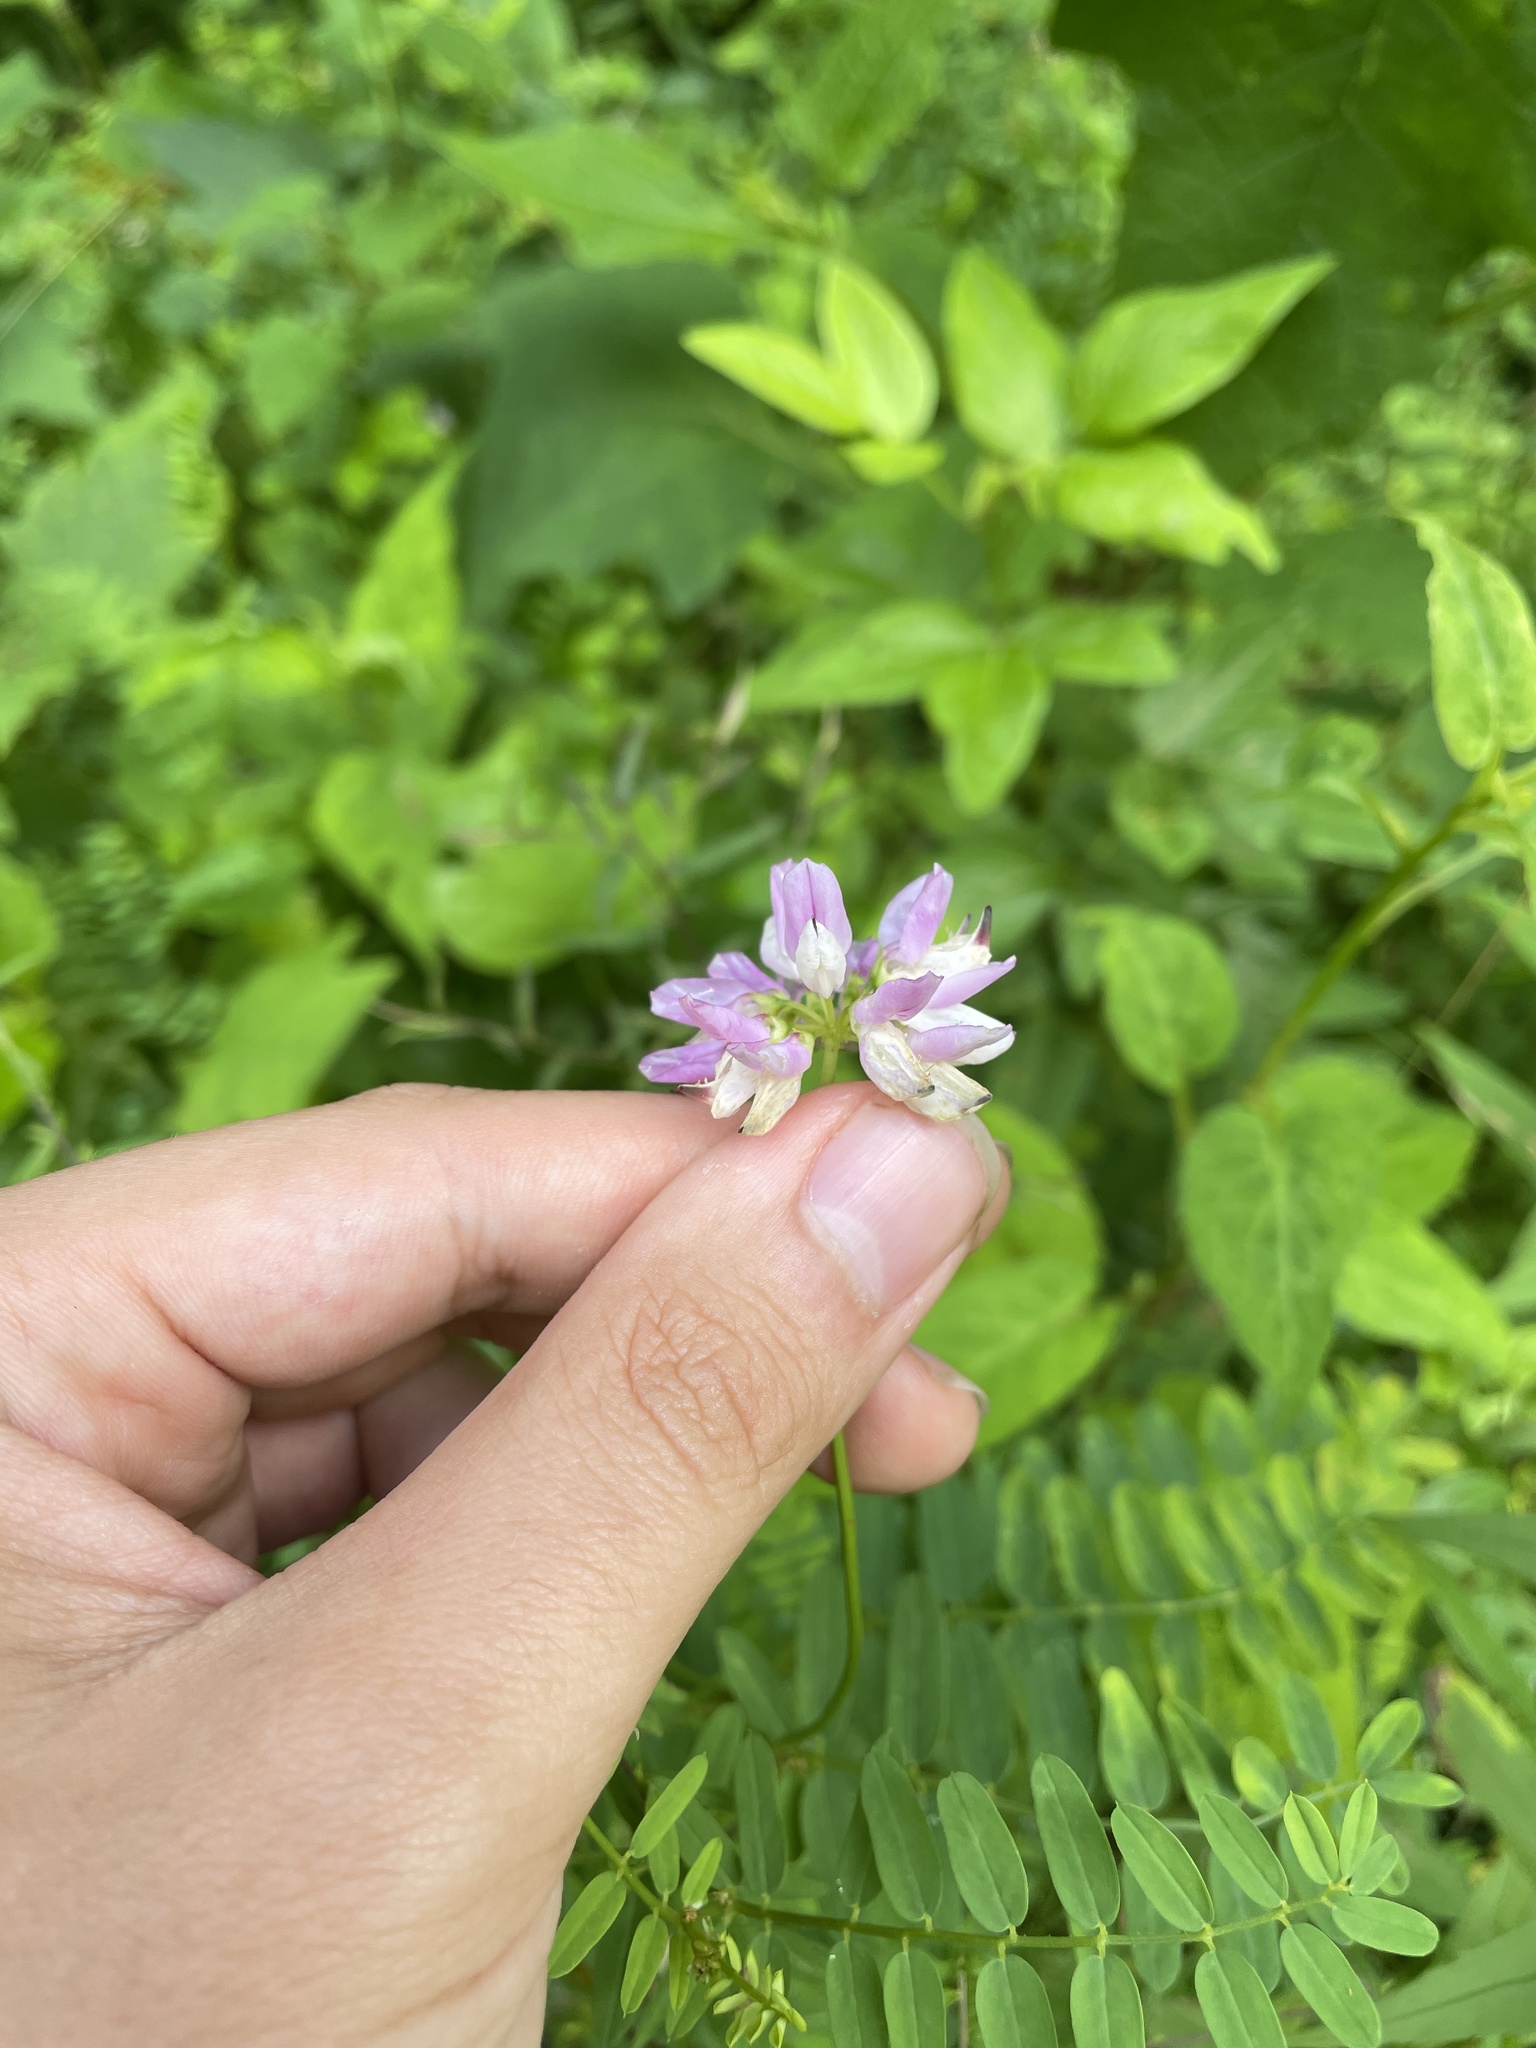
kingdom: Plantae
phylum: Tracheophyta
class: Magnoliopsida
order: Fabales
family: Fabaceae
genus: Coronilla
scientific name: Coronilla varia
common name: Crownvetch
